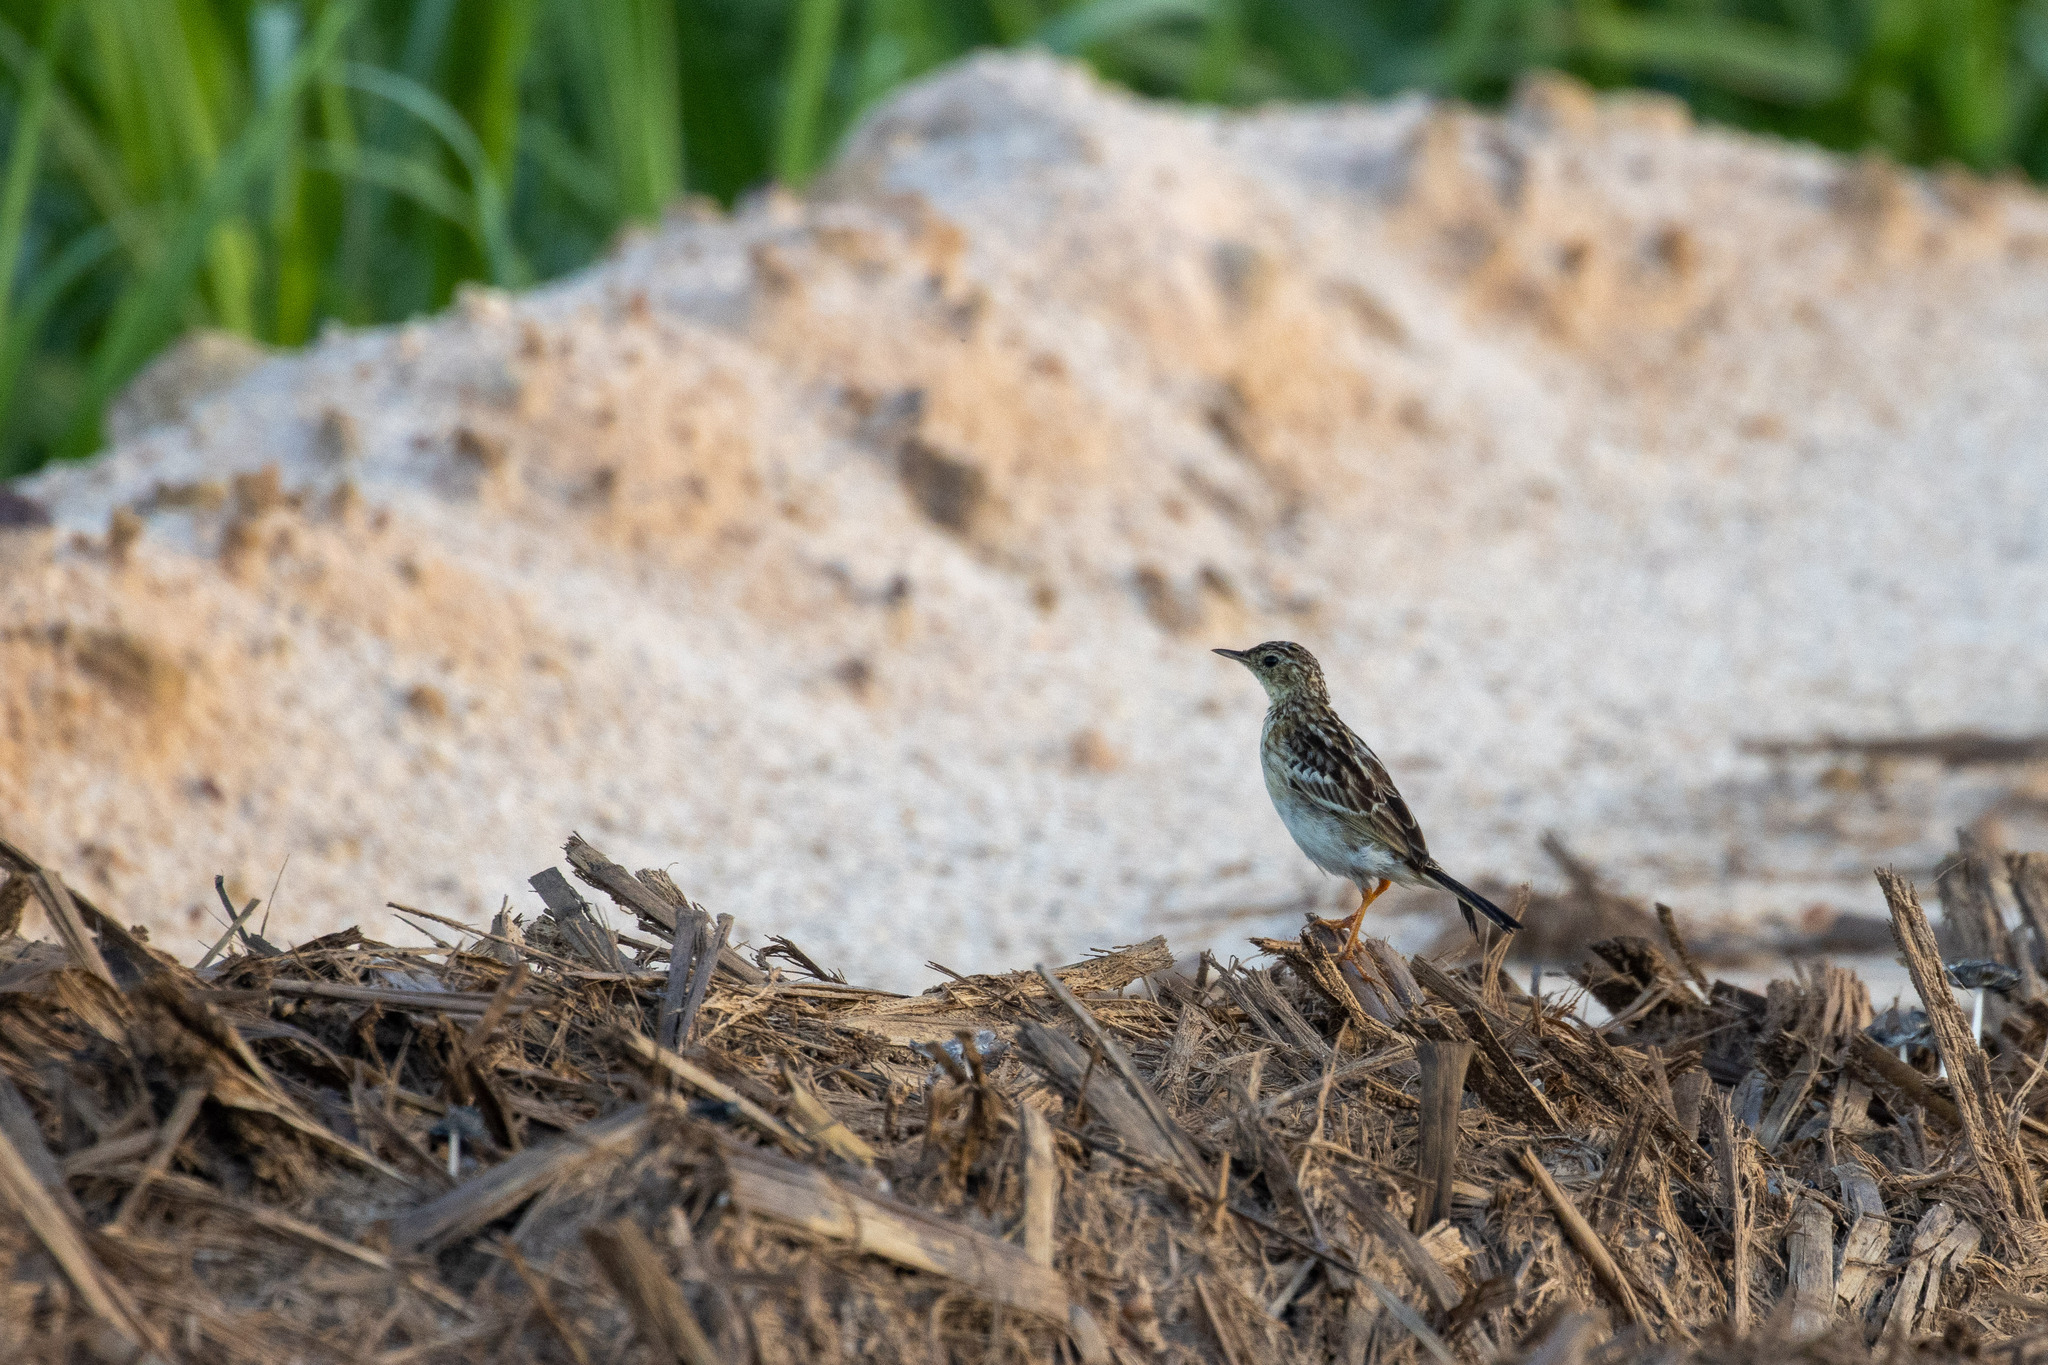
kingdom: Animalia
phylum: Chordata
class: Aves
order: Passeriformes
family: Motacillidae
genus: Anthus
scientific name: Anthus chii
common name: Yellowish pipit
